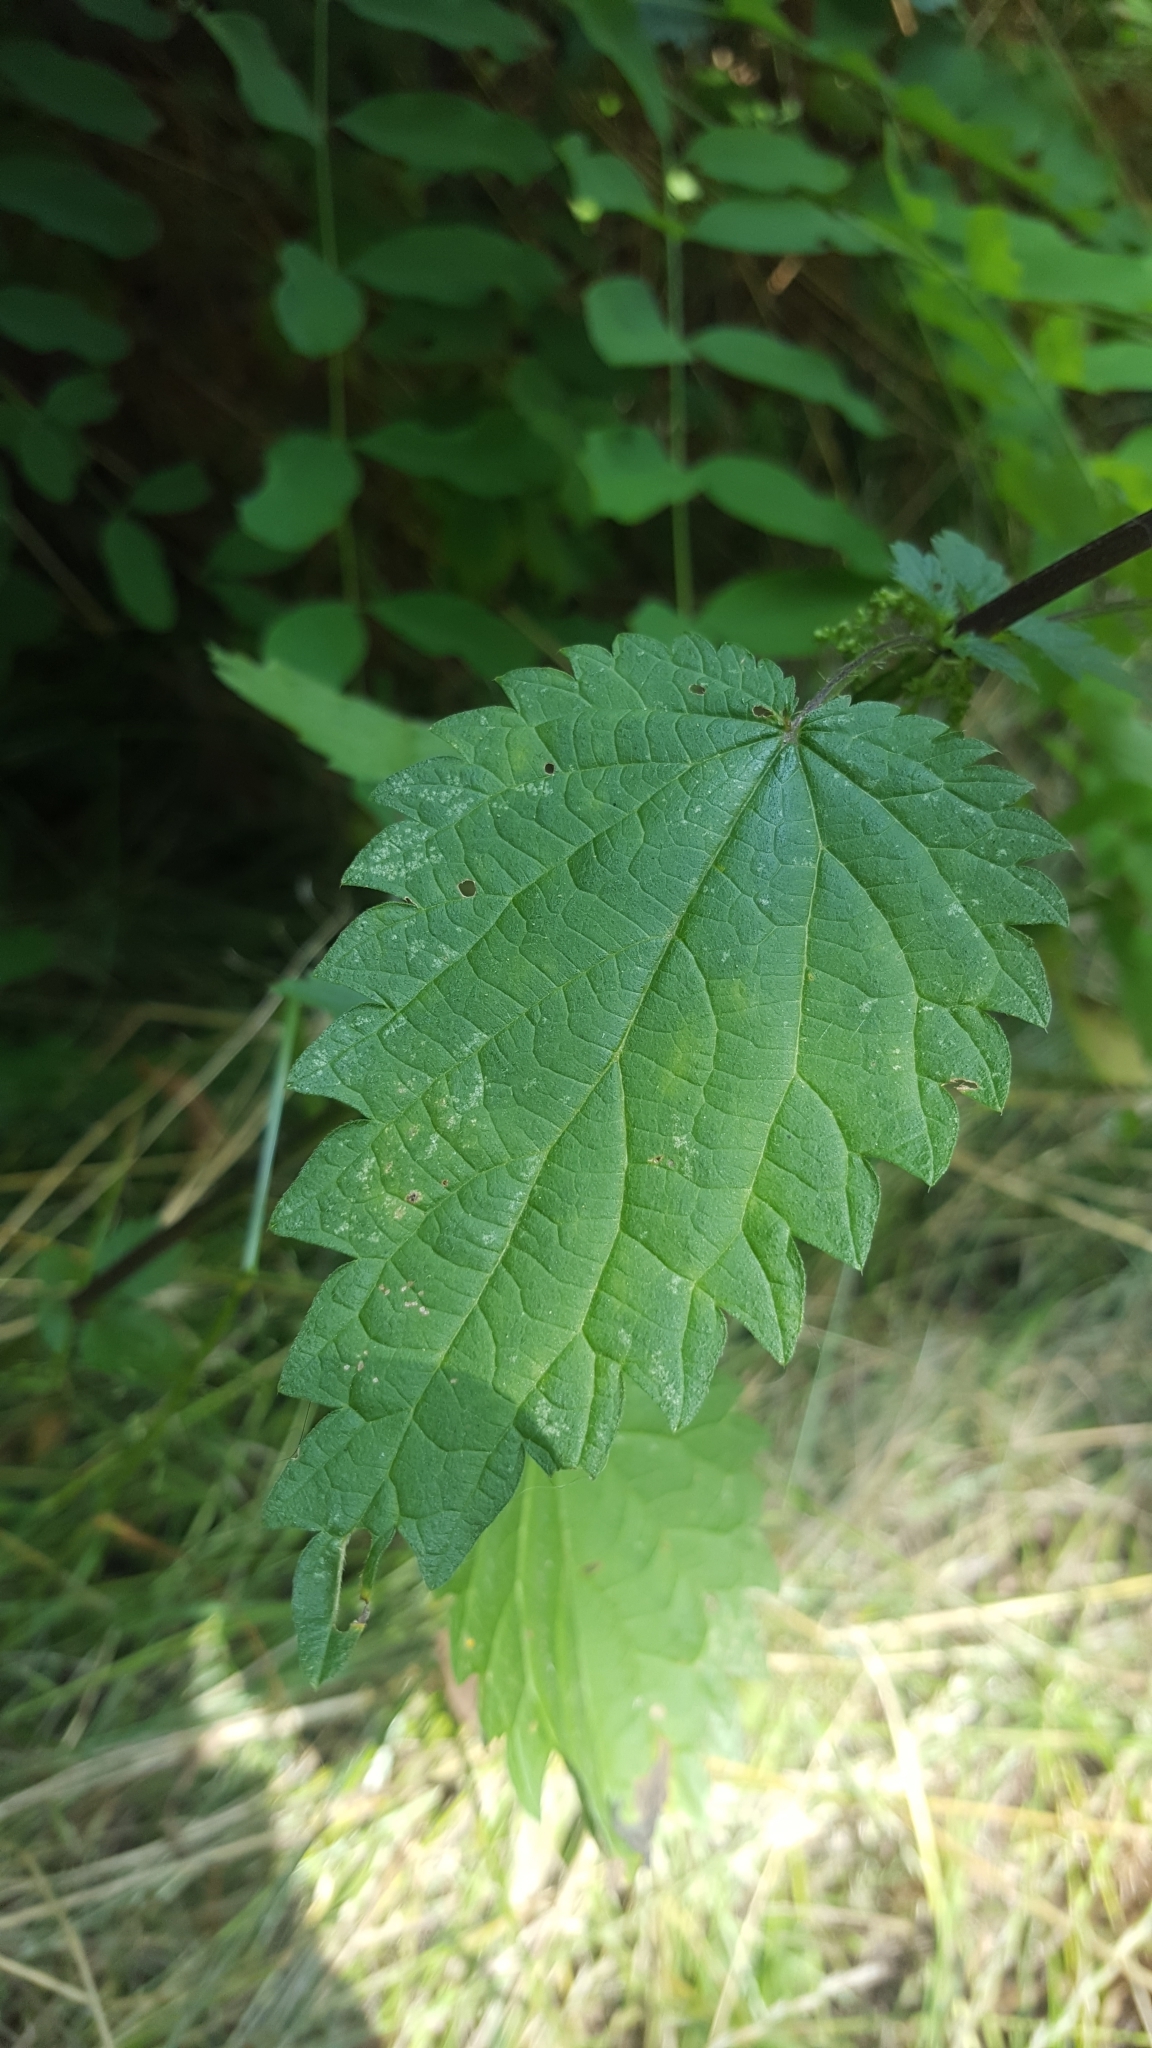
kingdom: Plantae
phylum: Tracheophyta
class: Magnoliopsida
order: Rosales
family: Urticaceae
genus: Urtica
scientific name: Urtica dioica
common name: Common nettle
